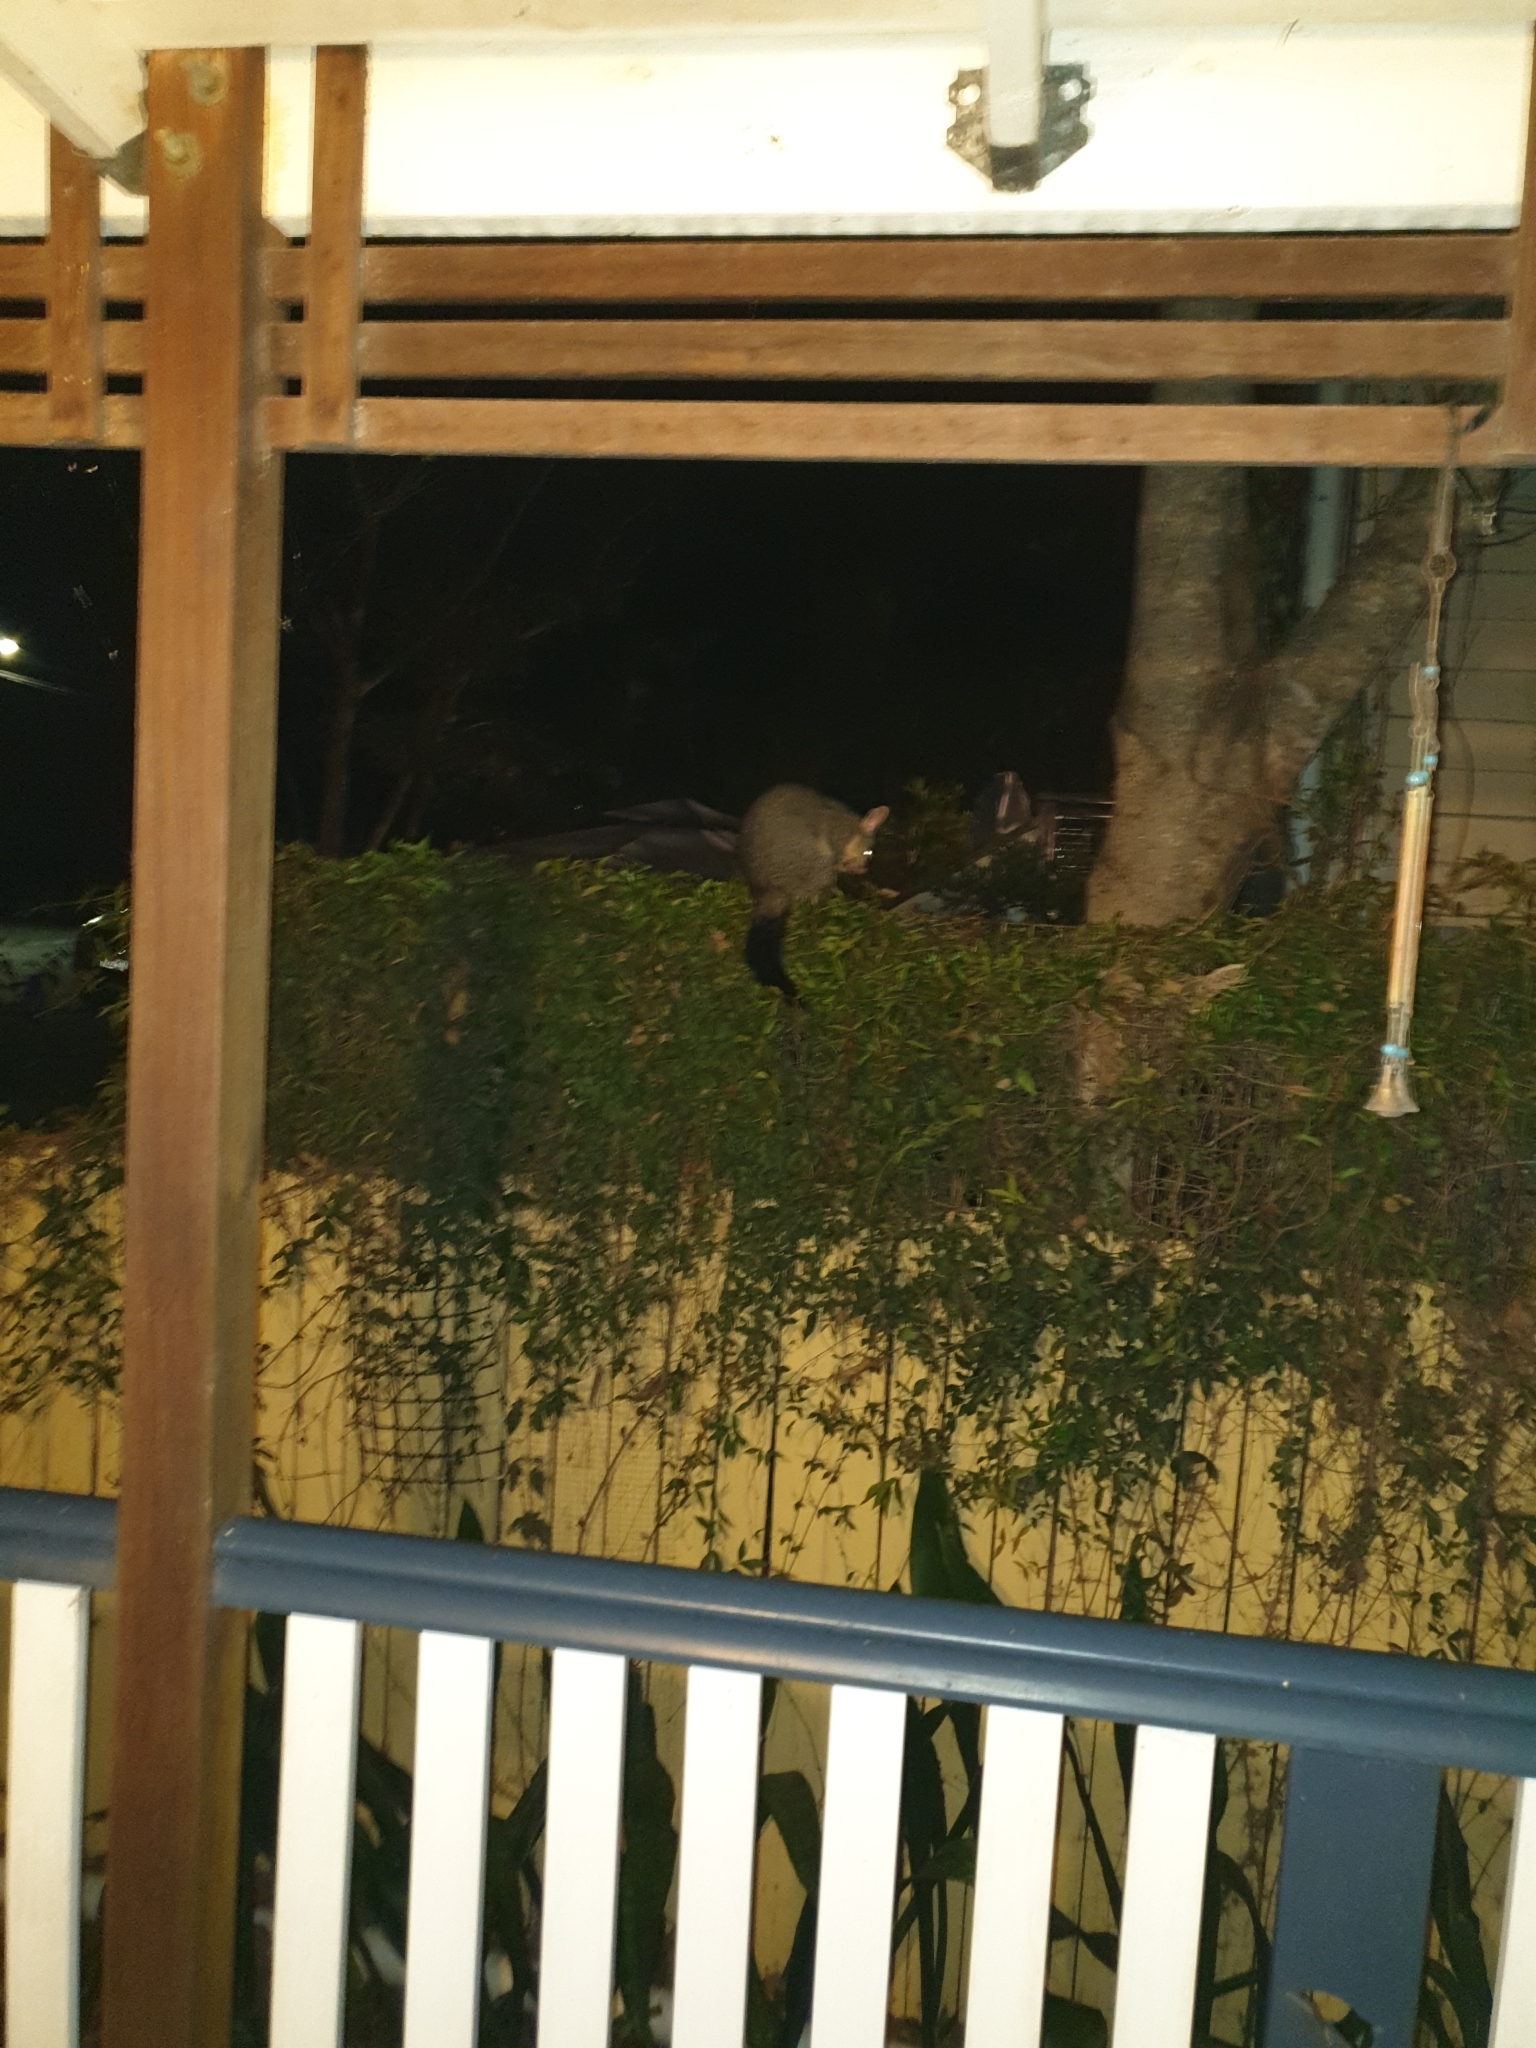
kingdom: Animalia
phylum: Chordata
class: Mammalia
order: Diprotodontia
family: Phalangeridae
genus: Trichosurus
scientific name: Trichosurus vulpecula
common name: Common brushtail
